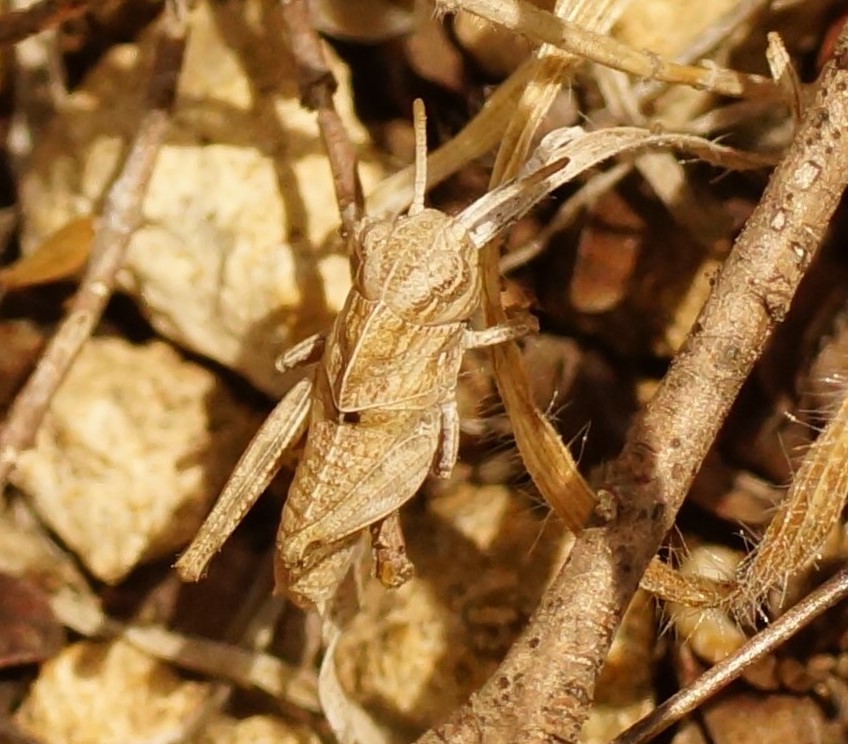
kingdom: Animalia
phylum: Arthropoda
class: Insecta
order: Orthoptera
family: Acrididae
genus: Gastrimargus
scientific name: Gastrimargus musicus
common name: Yellow-winged locust
